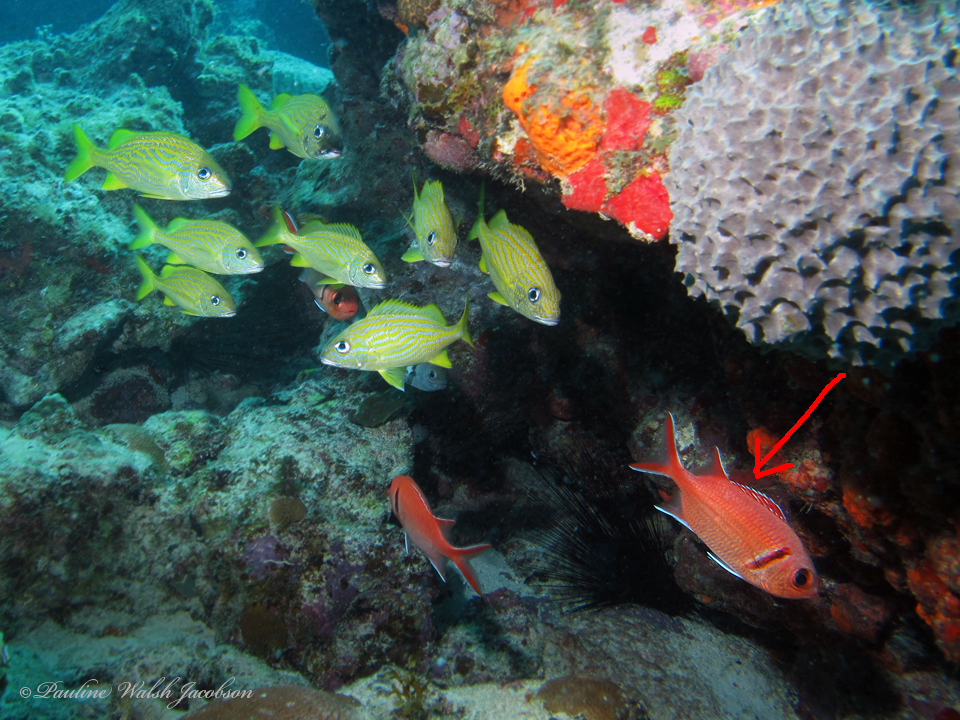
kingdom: Animalia
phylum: Chordata
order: Beryciformes
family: Holocentridae
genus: Myripristis
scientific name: Myripristis jacobus
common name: Blackbar soldierfish
